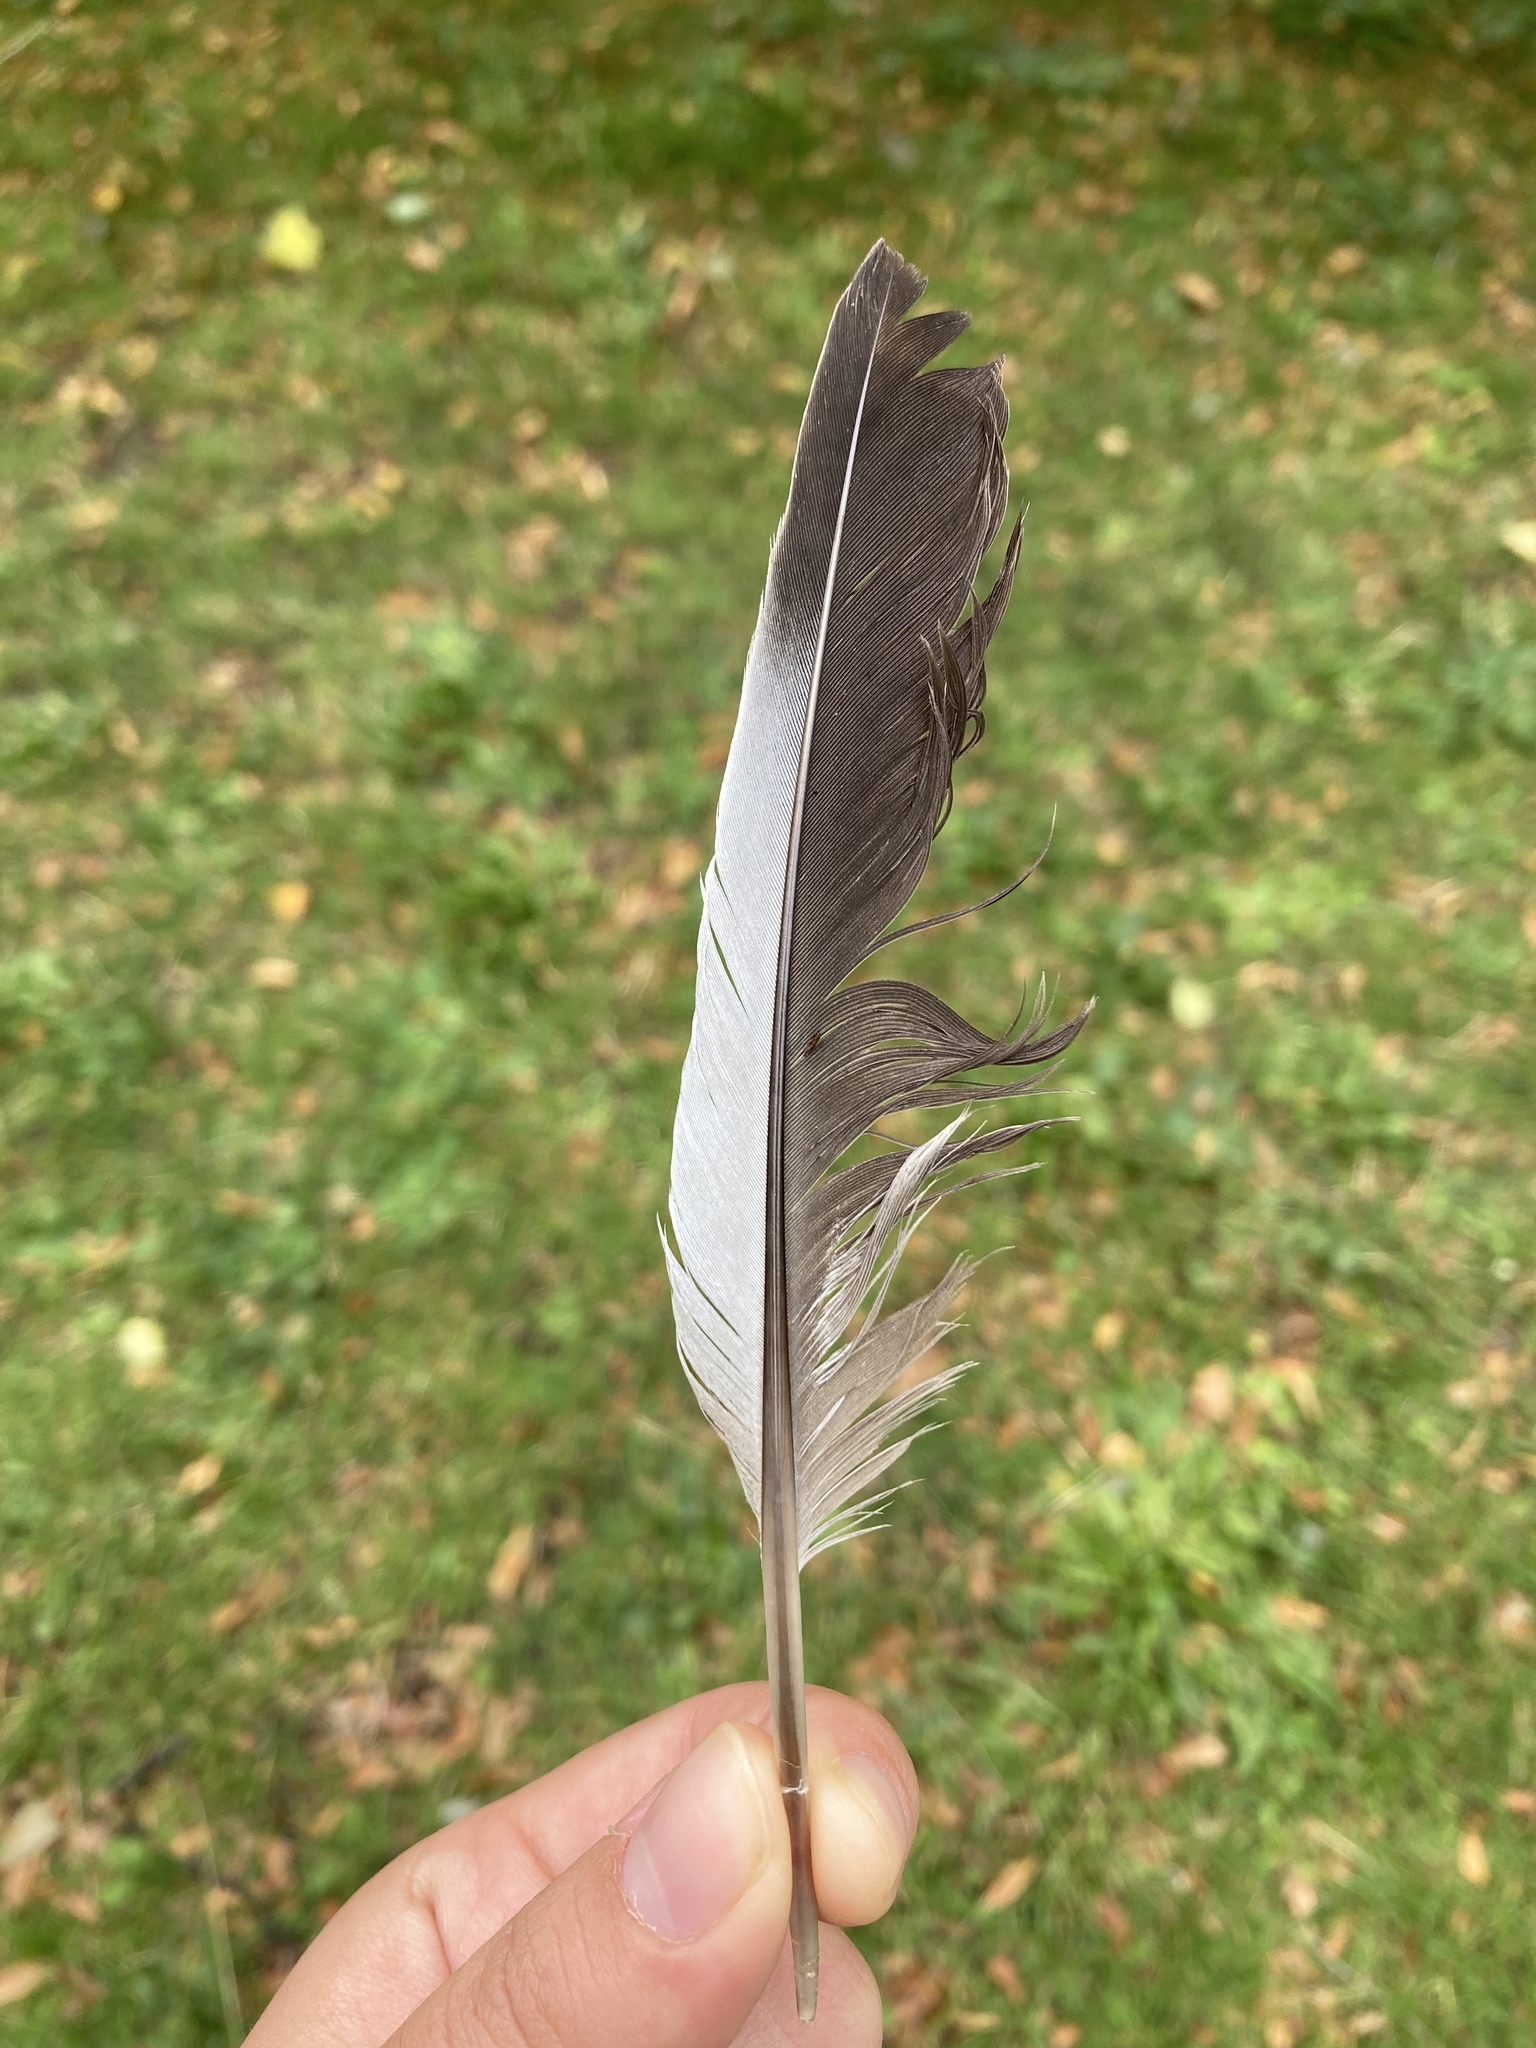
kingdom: Animalia
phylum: Chordata
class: Aves
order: Columbiformes
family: Columbidae
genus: Columba
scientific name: Columba oenas
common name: Stock dove
